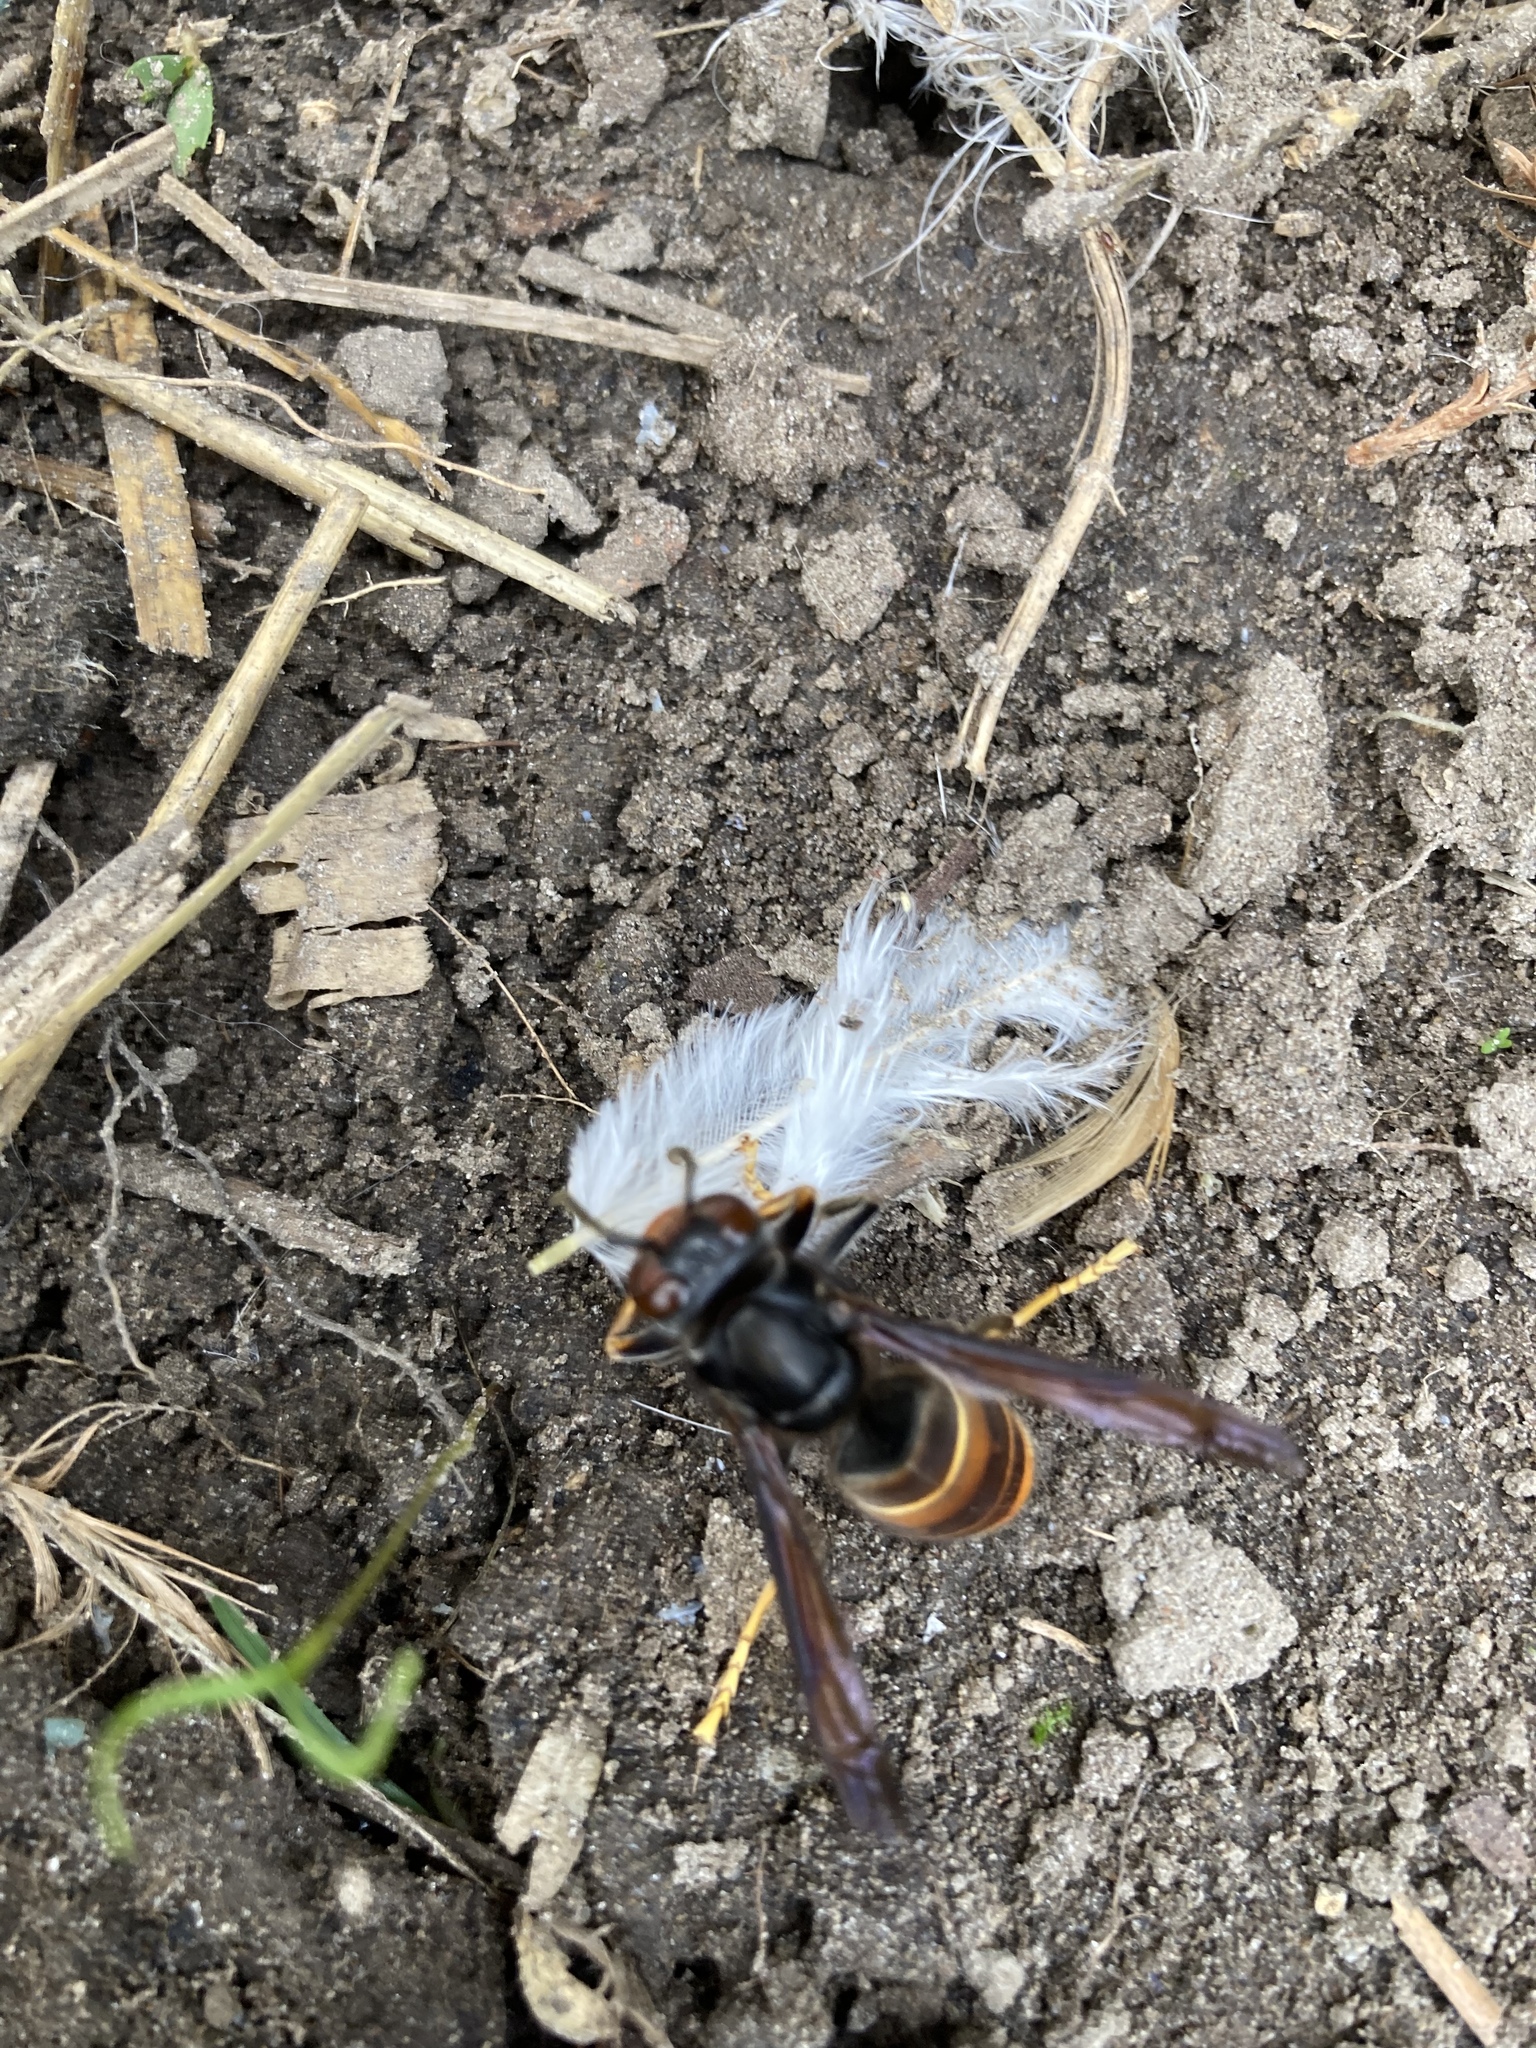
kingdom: Animalia
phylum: Arthropoda
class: Insecta
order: Hymenoptera
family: Vespidae
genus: Vespa
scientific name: Vespa velutina
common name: Asian hornet
